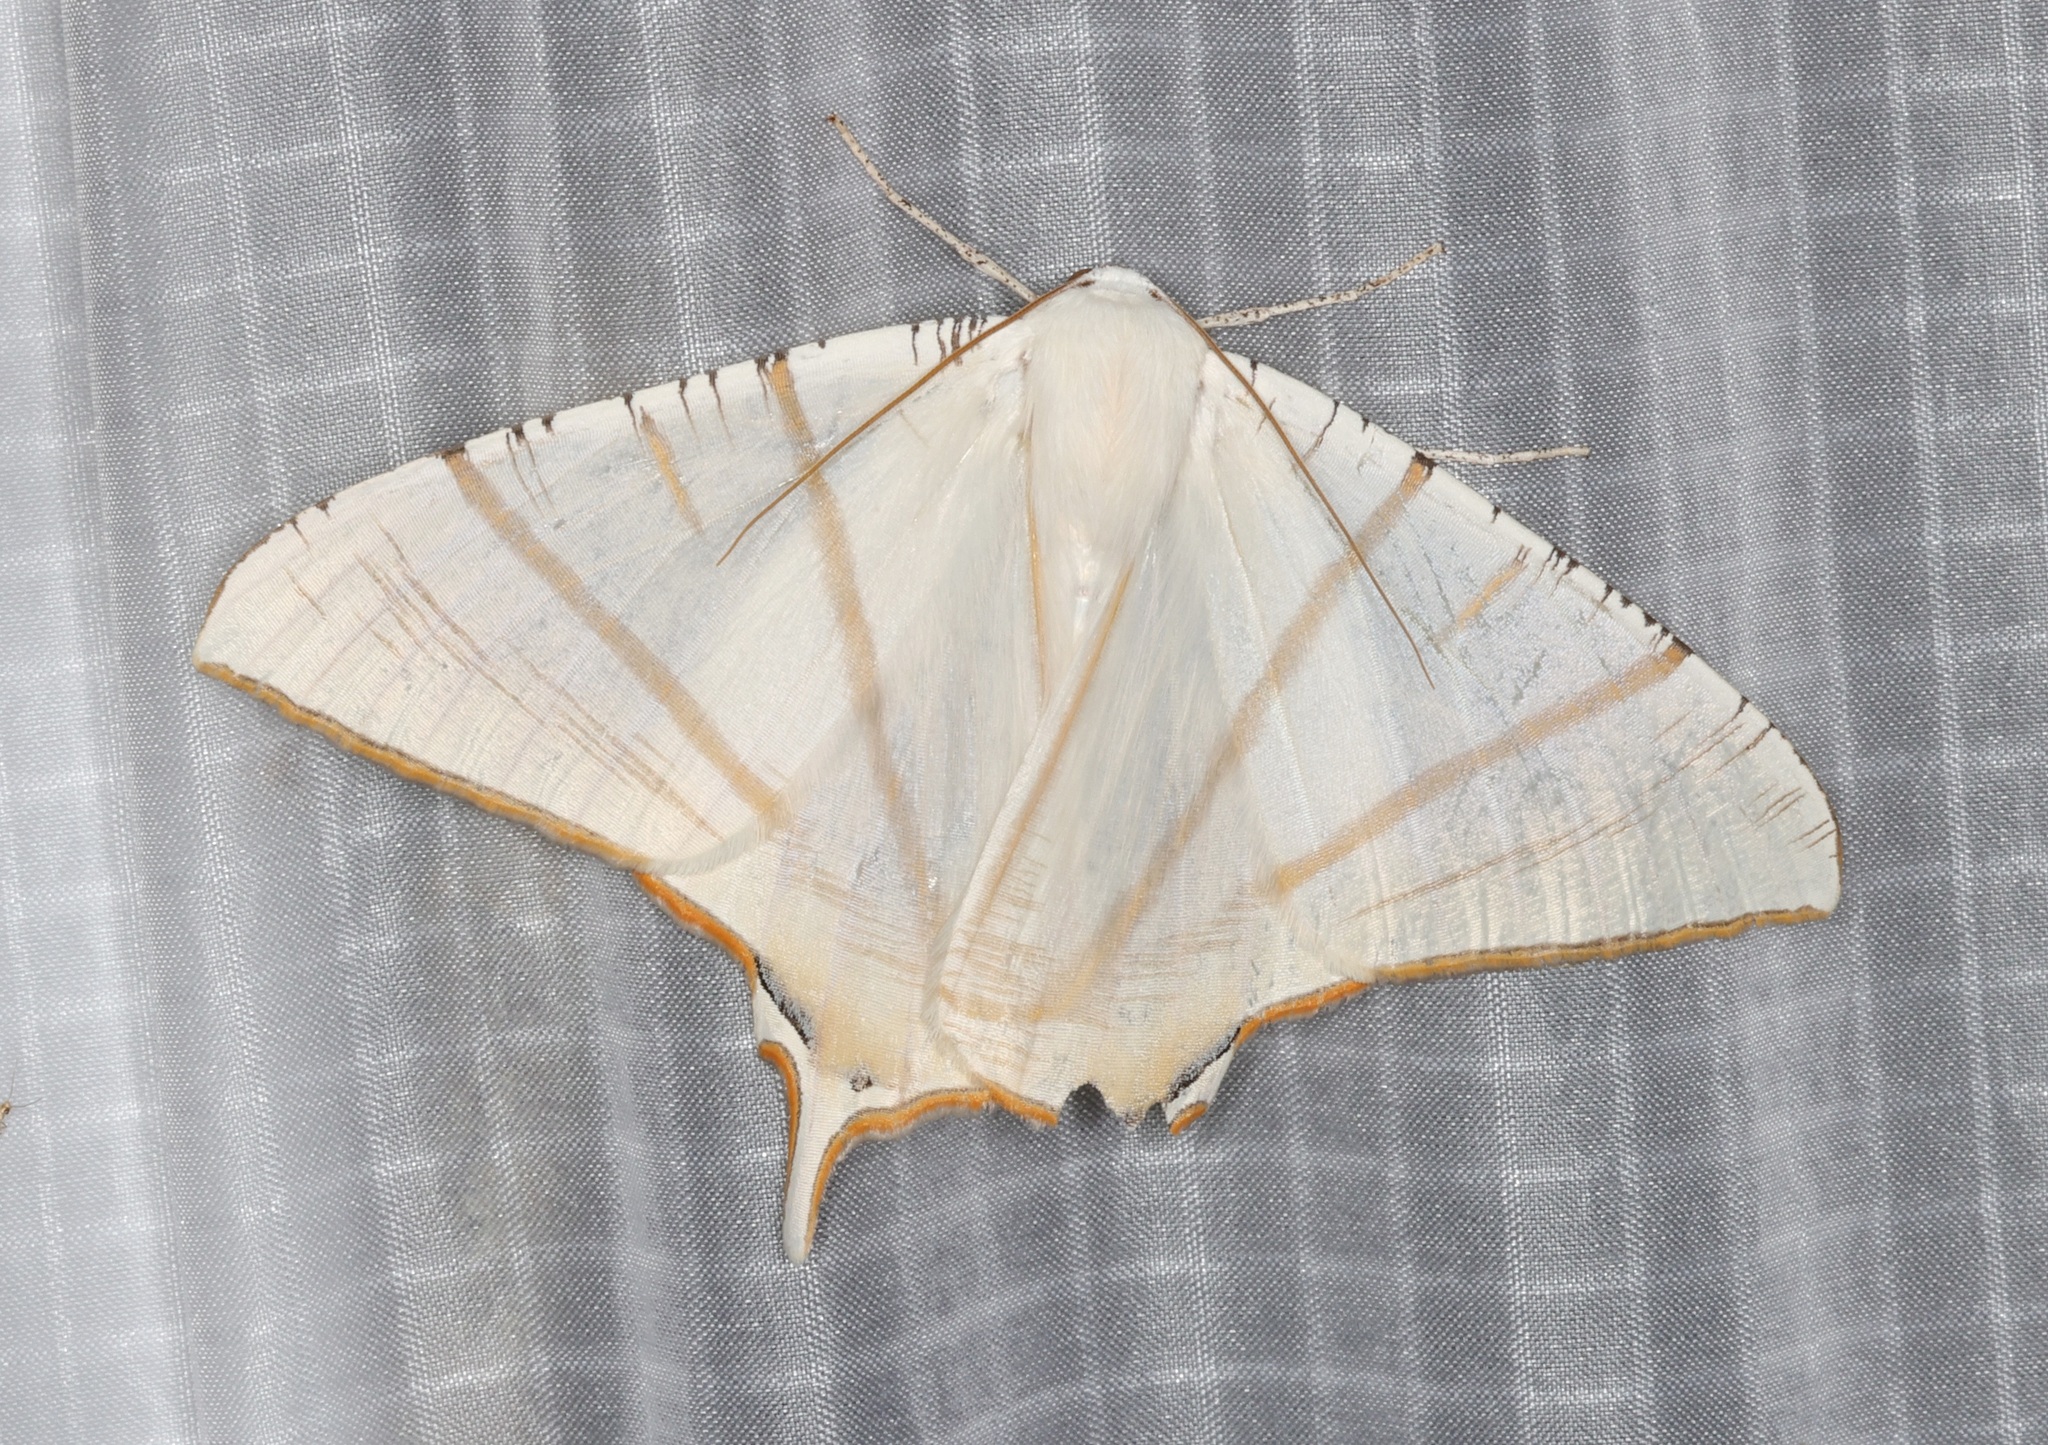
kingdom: Animalia
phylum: Arthropoda
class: Insecta
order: Lepidoptera
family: Geometridae
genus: Ourapteryx
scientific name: Ourapteryx clara
